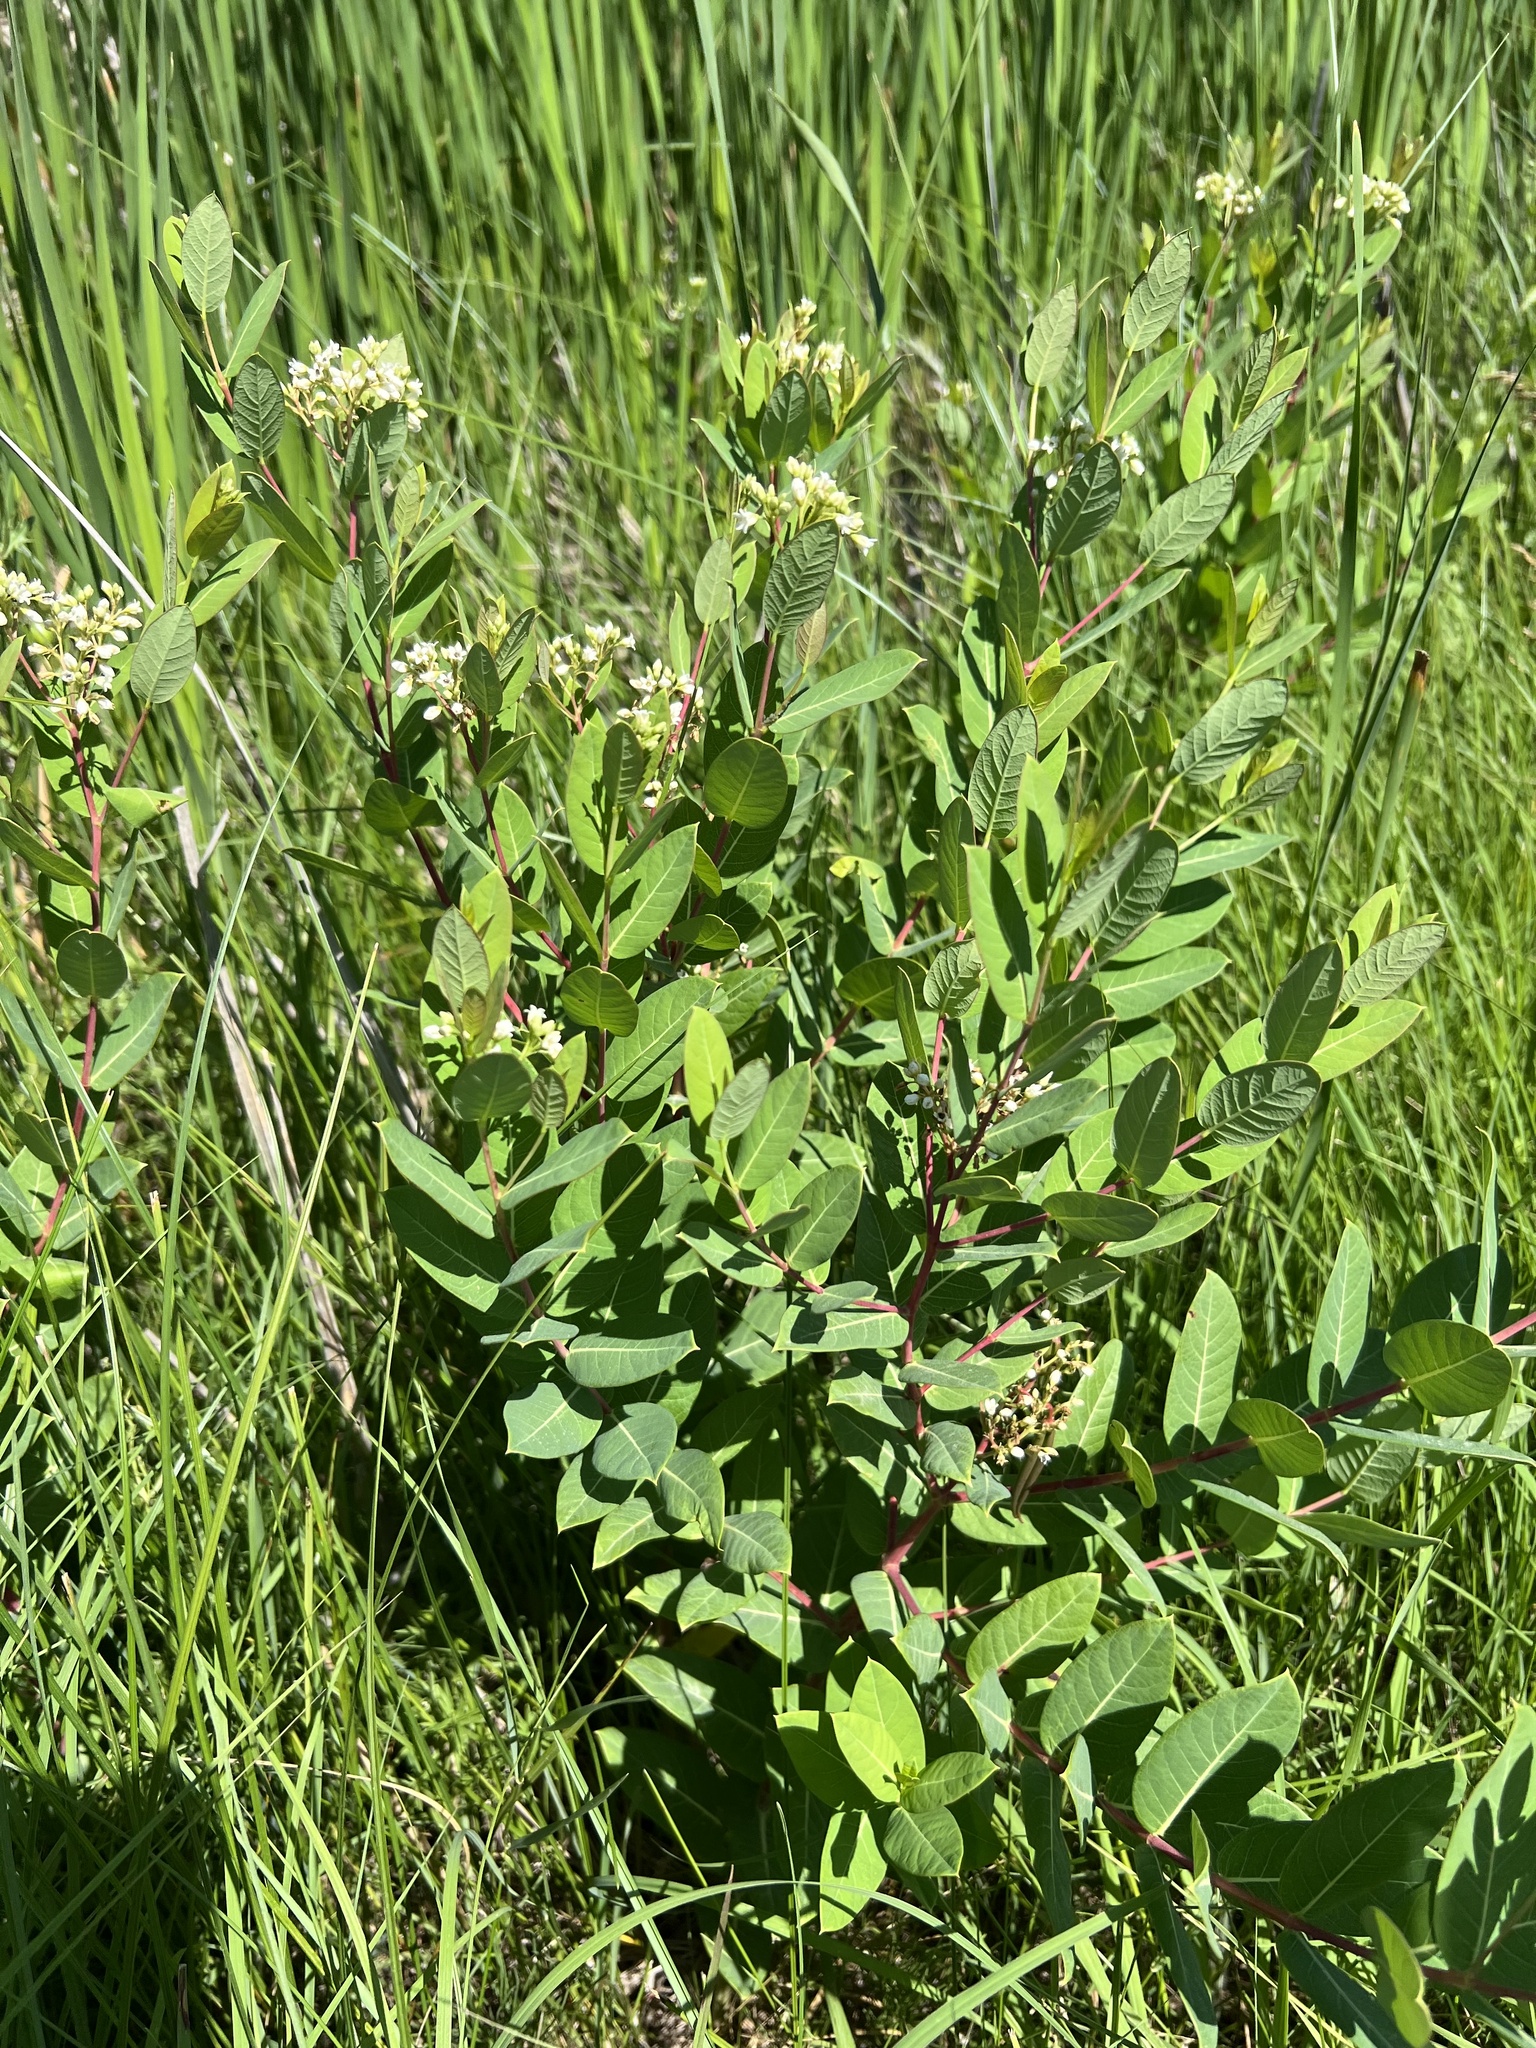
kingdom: Plantae
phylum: Tracheophyta
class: Magnoliopsida
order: Gentianales
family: Apocynaceae
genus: Apocynum
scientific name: Apocynum cannabinum
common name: Hemp dogbane
